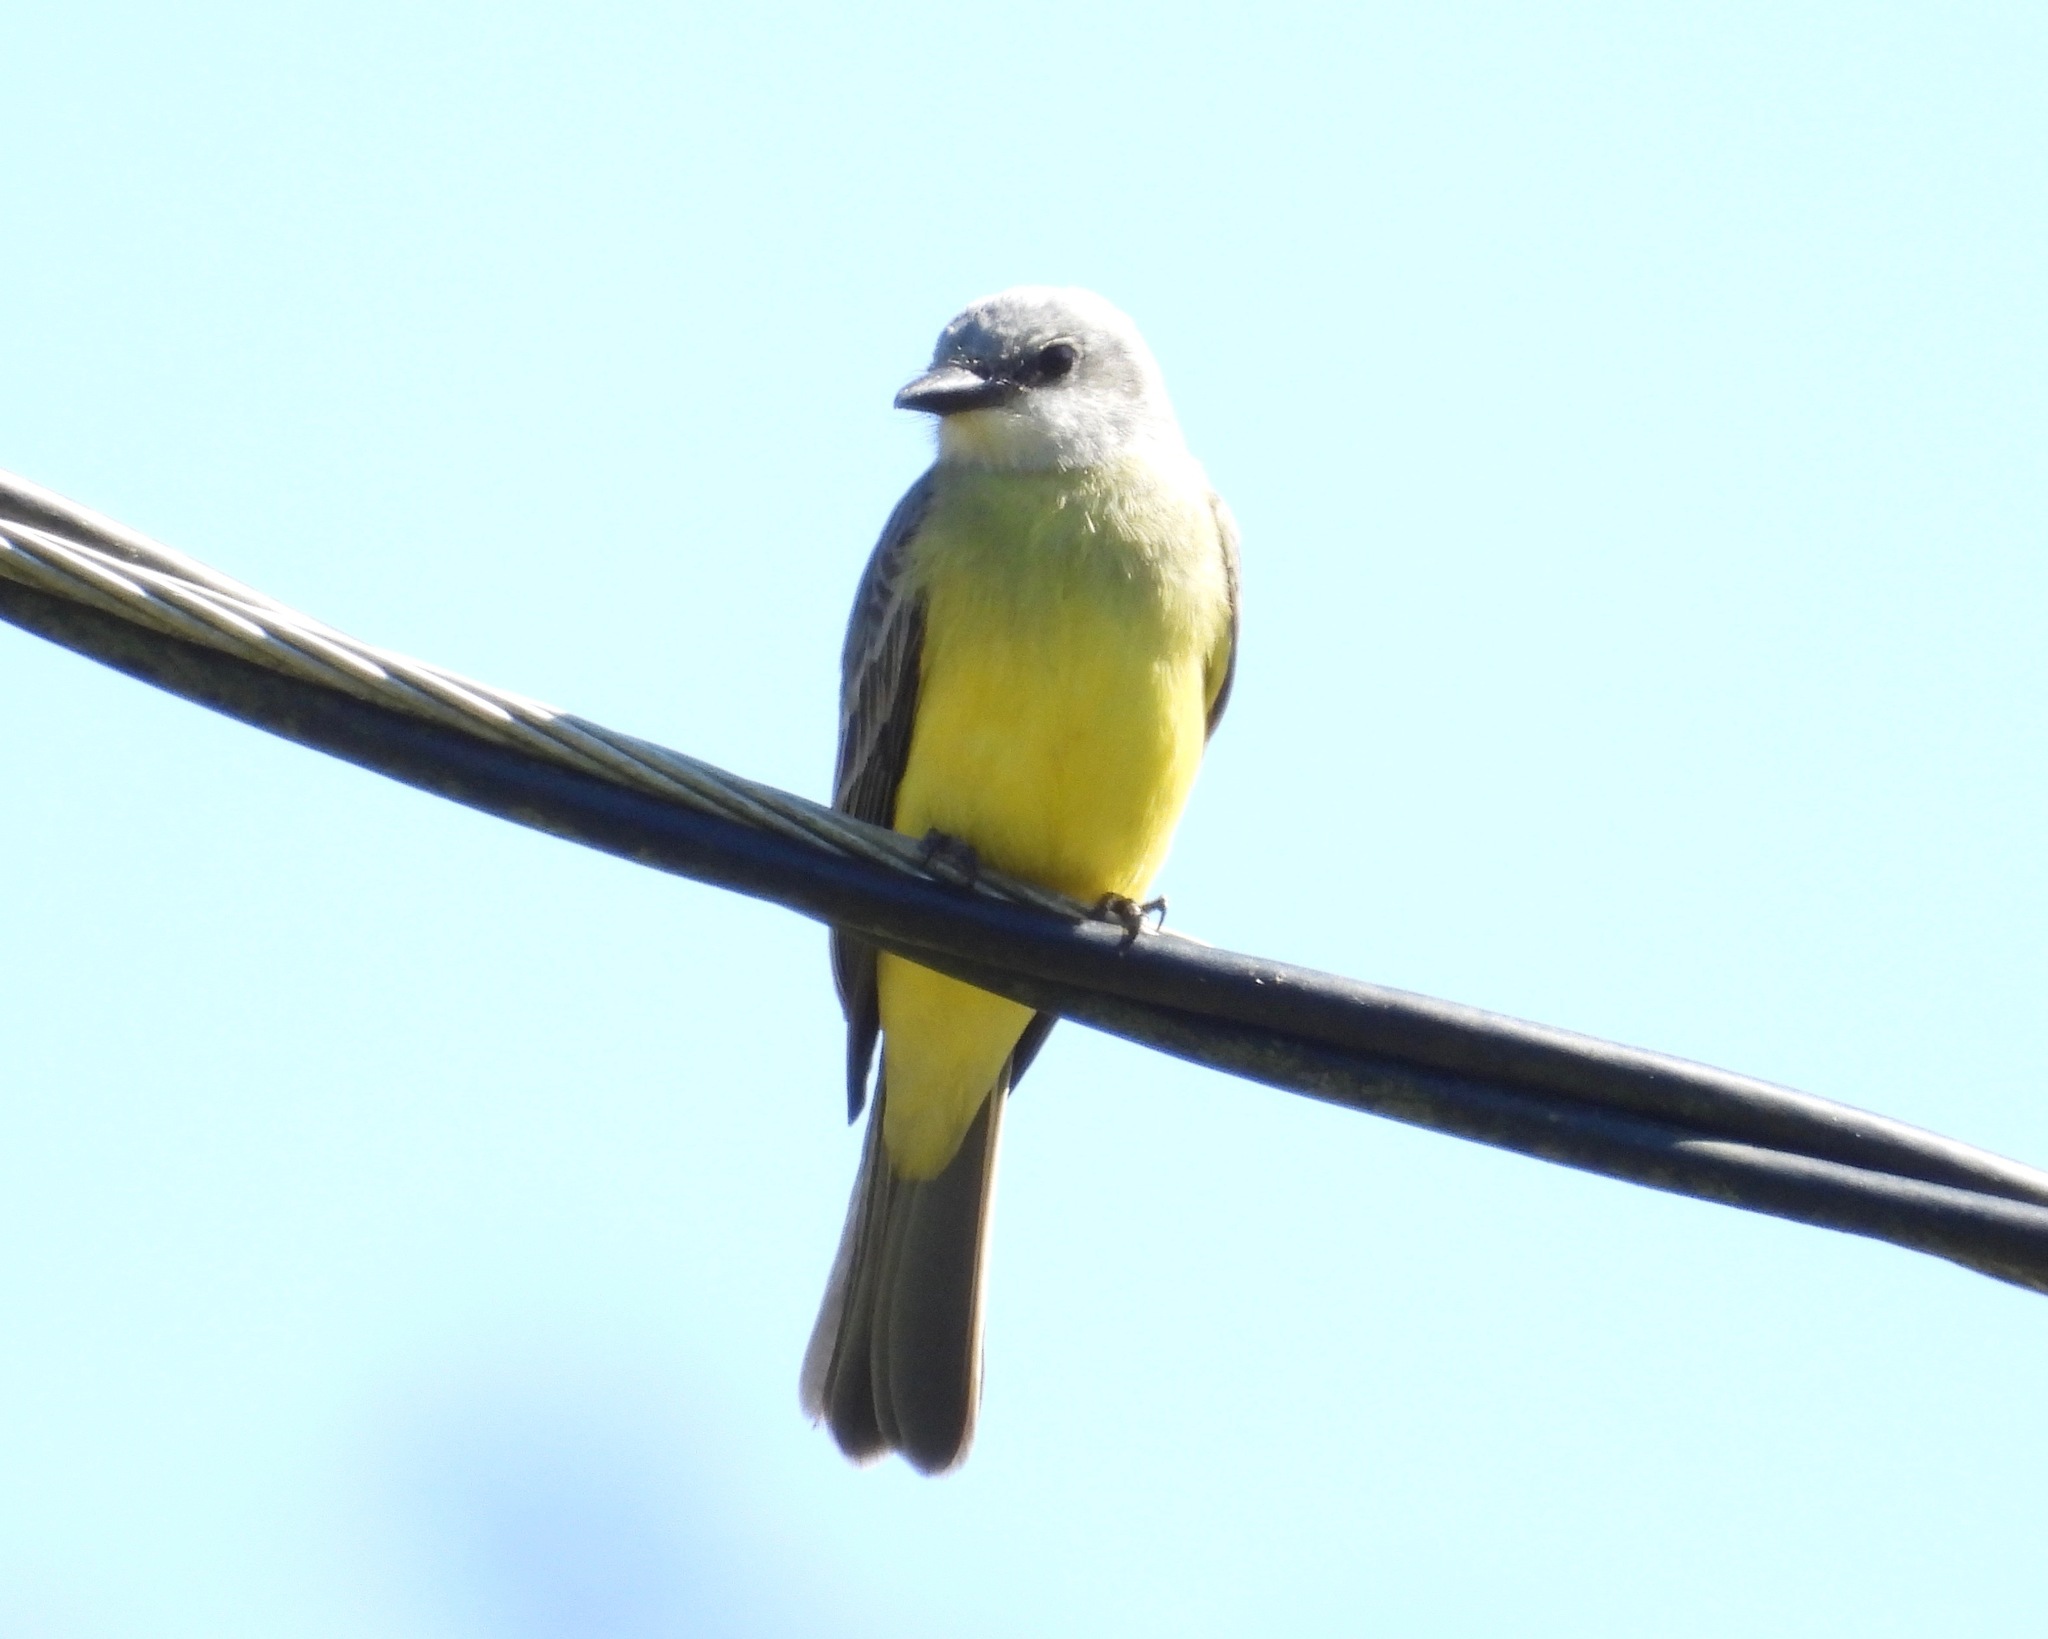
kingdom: Animalia
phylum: Chordata
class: Aves
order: Passeriformes
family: Tyrannidae
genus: Tyrannus
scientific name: Tyrannus melancholicus
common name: Tropical kingbird
